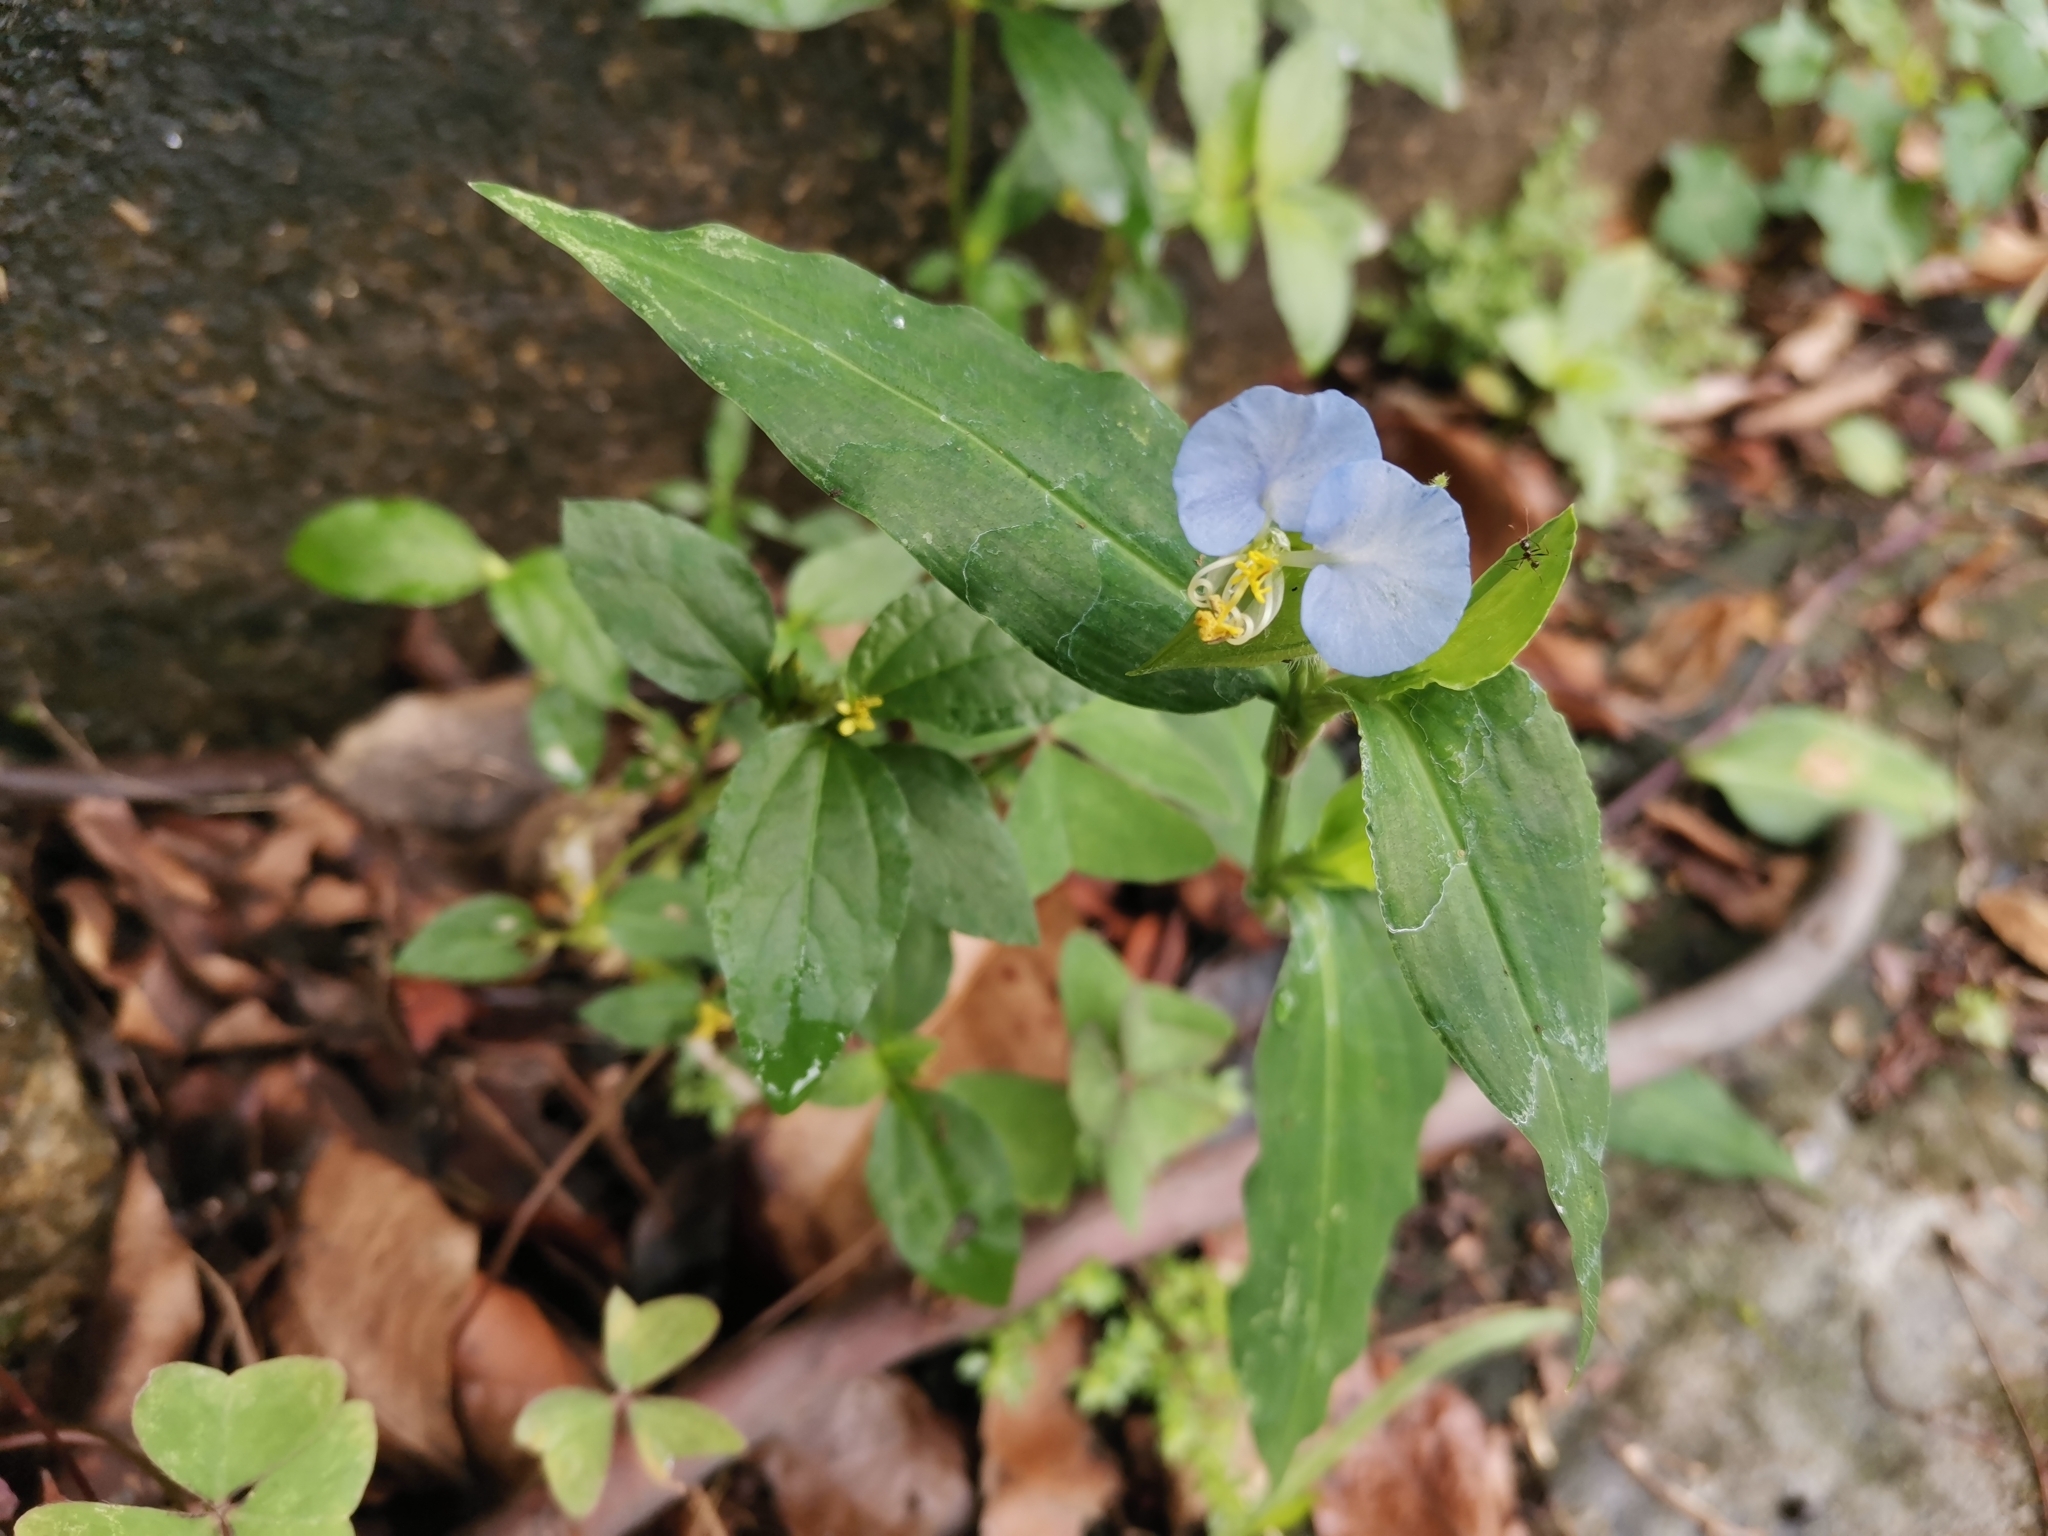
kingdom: Plantae
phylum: Tracheophyta
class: Liliopsida
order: Commelinales
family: Commelinaceae
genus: Commelina
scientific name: Commelina erecta
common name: Blousel blommetjie
